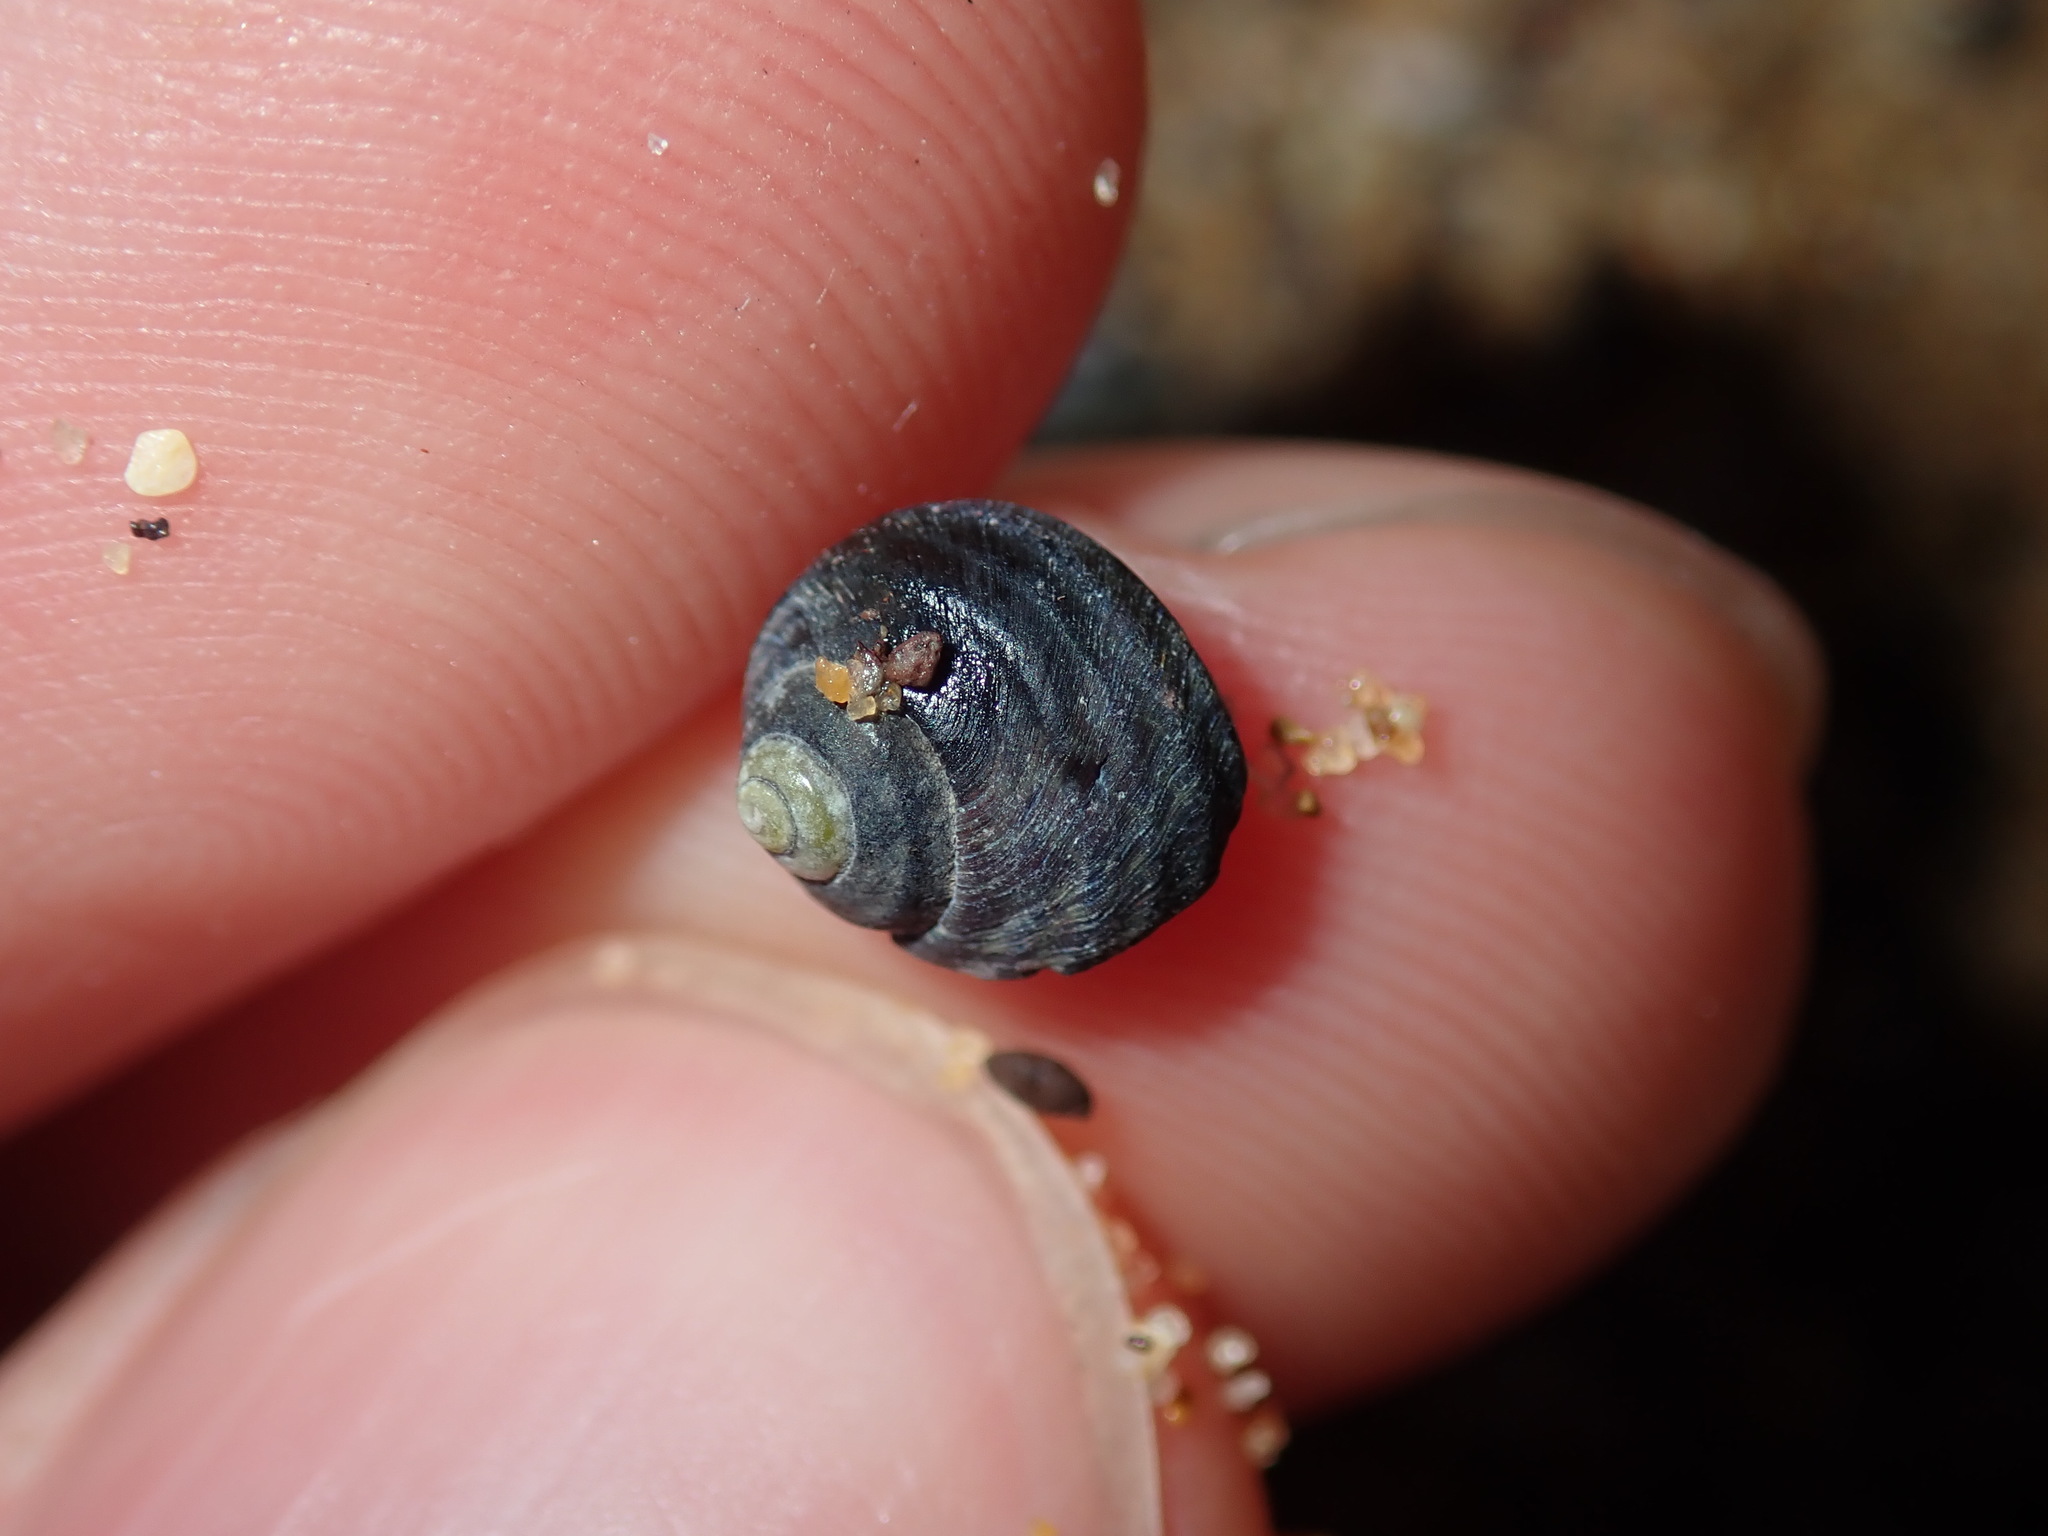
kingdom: Animalia
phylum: Mollusca
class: Gastropoda
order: Trochida
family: Trochidae
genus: Austrocochlea
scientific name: Austrocochlea constricta
